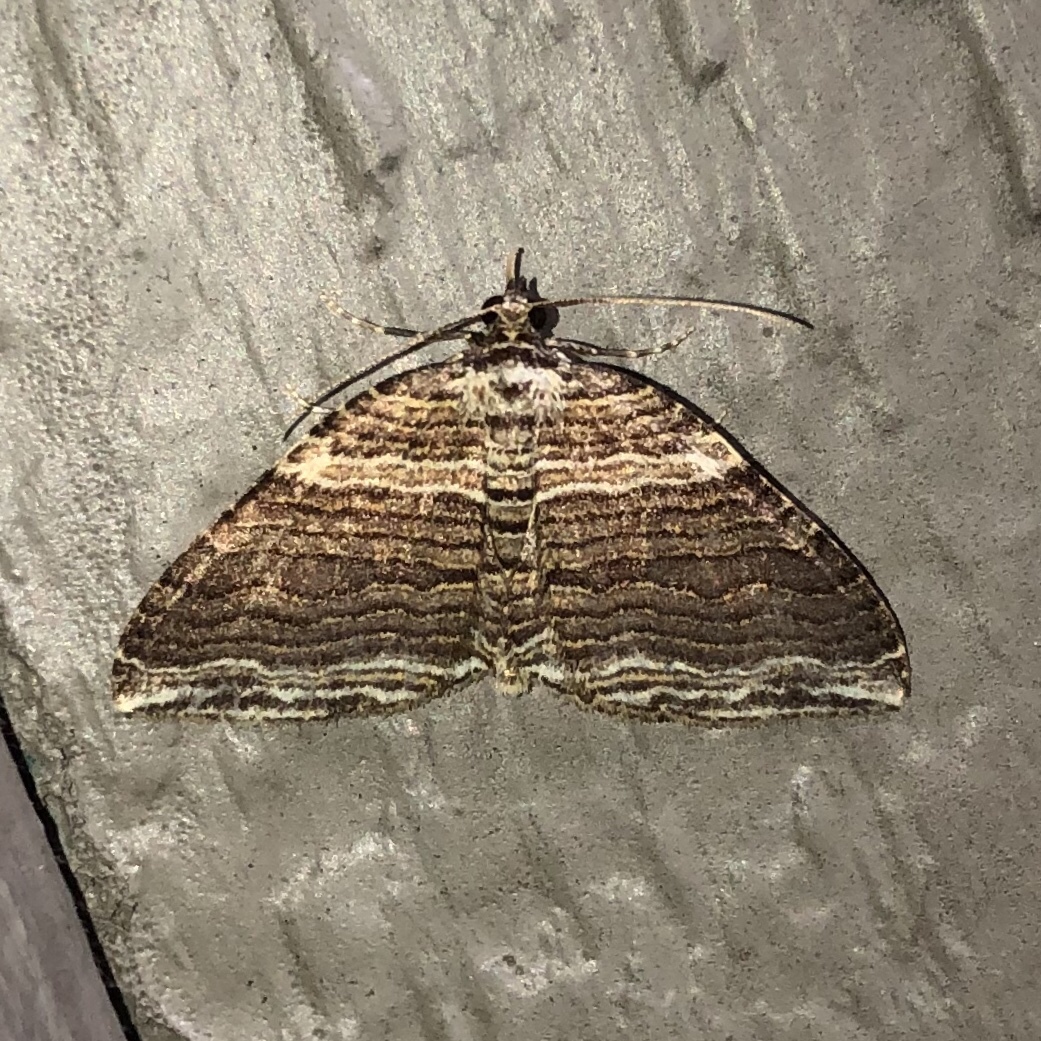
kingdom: Animalia
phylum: Arthropoda
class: Insecta
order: Lepidoptera
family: Geometridae
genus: Anticlea
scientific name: Anticlea multiferata
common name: Many-lined carpet
